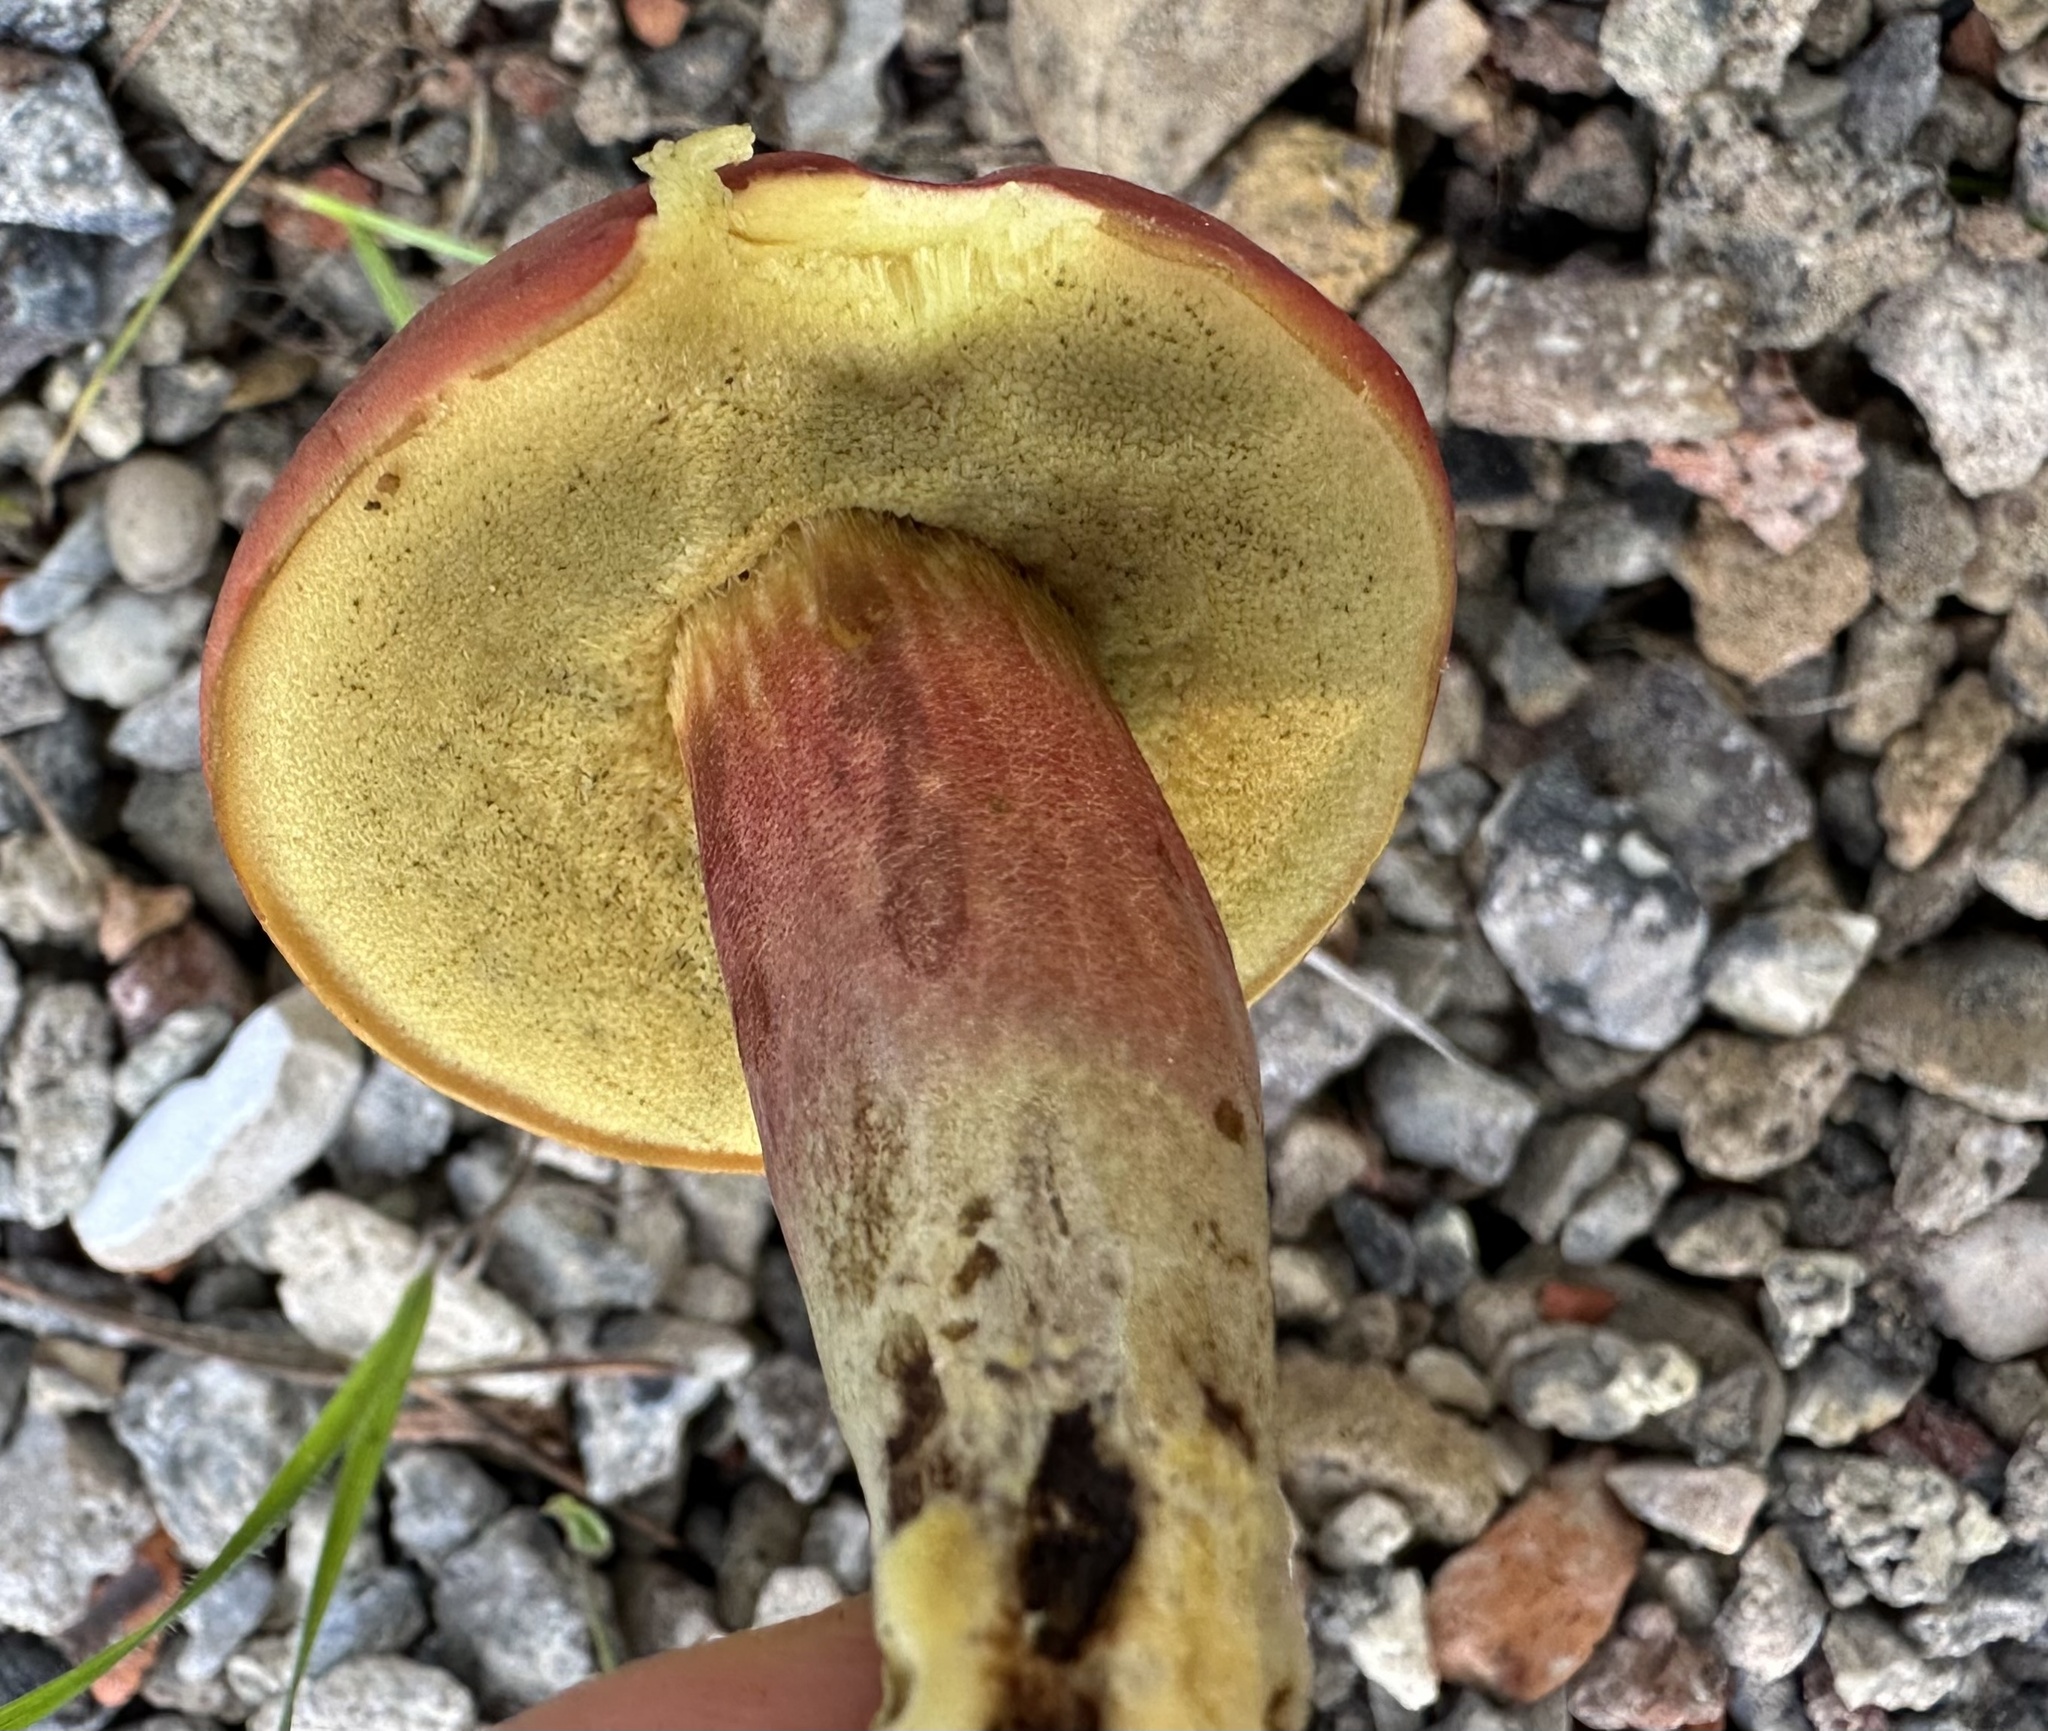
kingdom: Fungi
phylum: Basidiomycota
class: Agaricomycetes
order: Boletales
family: Boletaceae
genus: Hortiboletus
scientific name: Hortiboletus rubellus
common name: Ruby bolete
